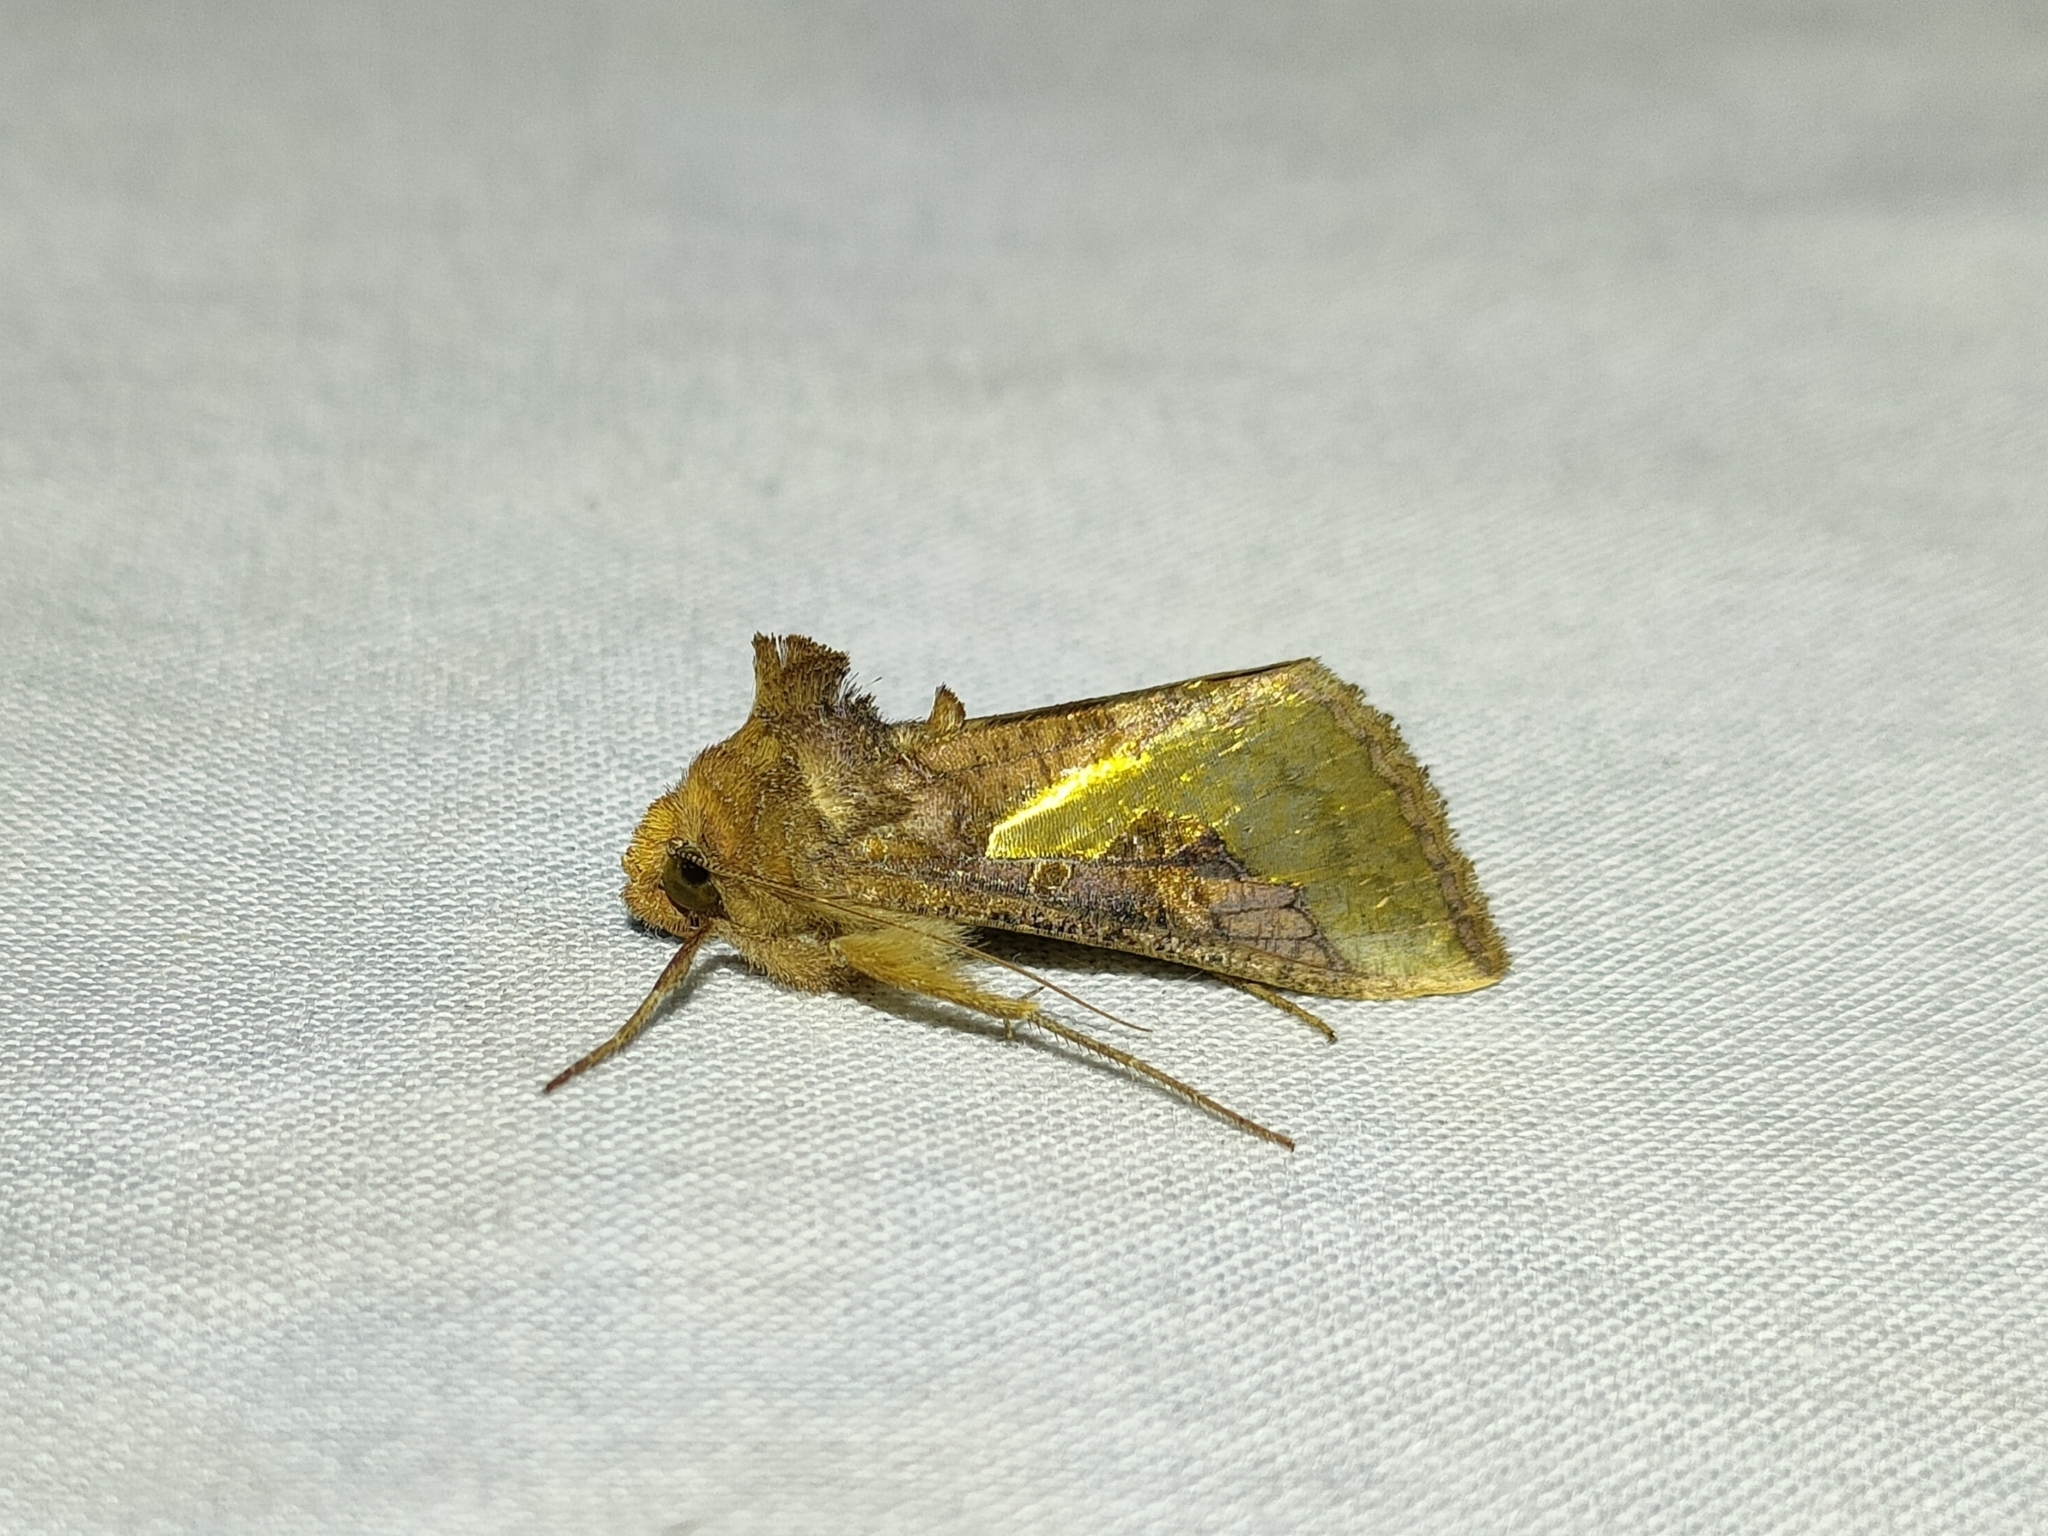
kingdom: Animalia
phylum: Arthropoda
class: Insecta
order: Lepidoptera
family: Noctuidae
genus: Thysanoplusia
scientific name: Thysanoplusia orichalcea
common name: Slender burnished brass, golden plusia
